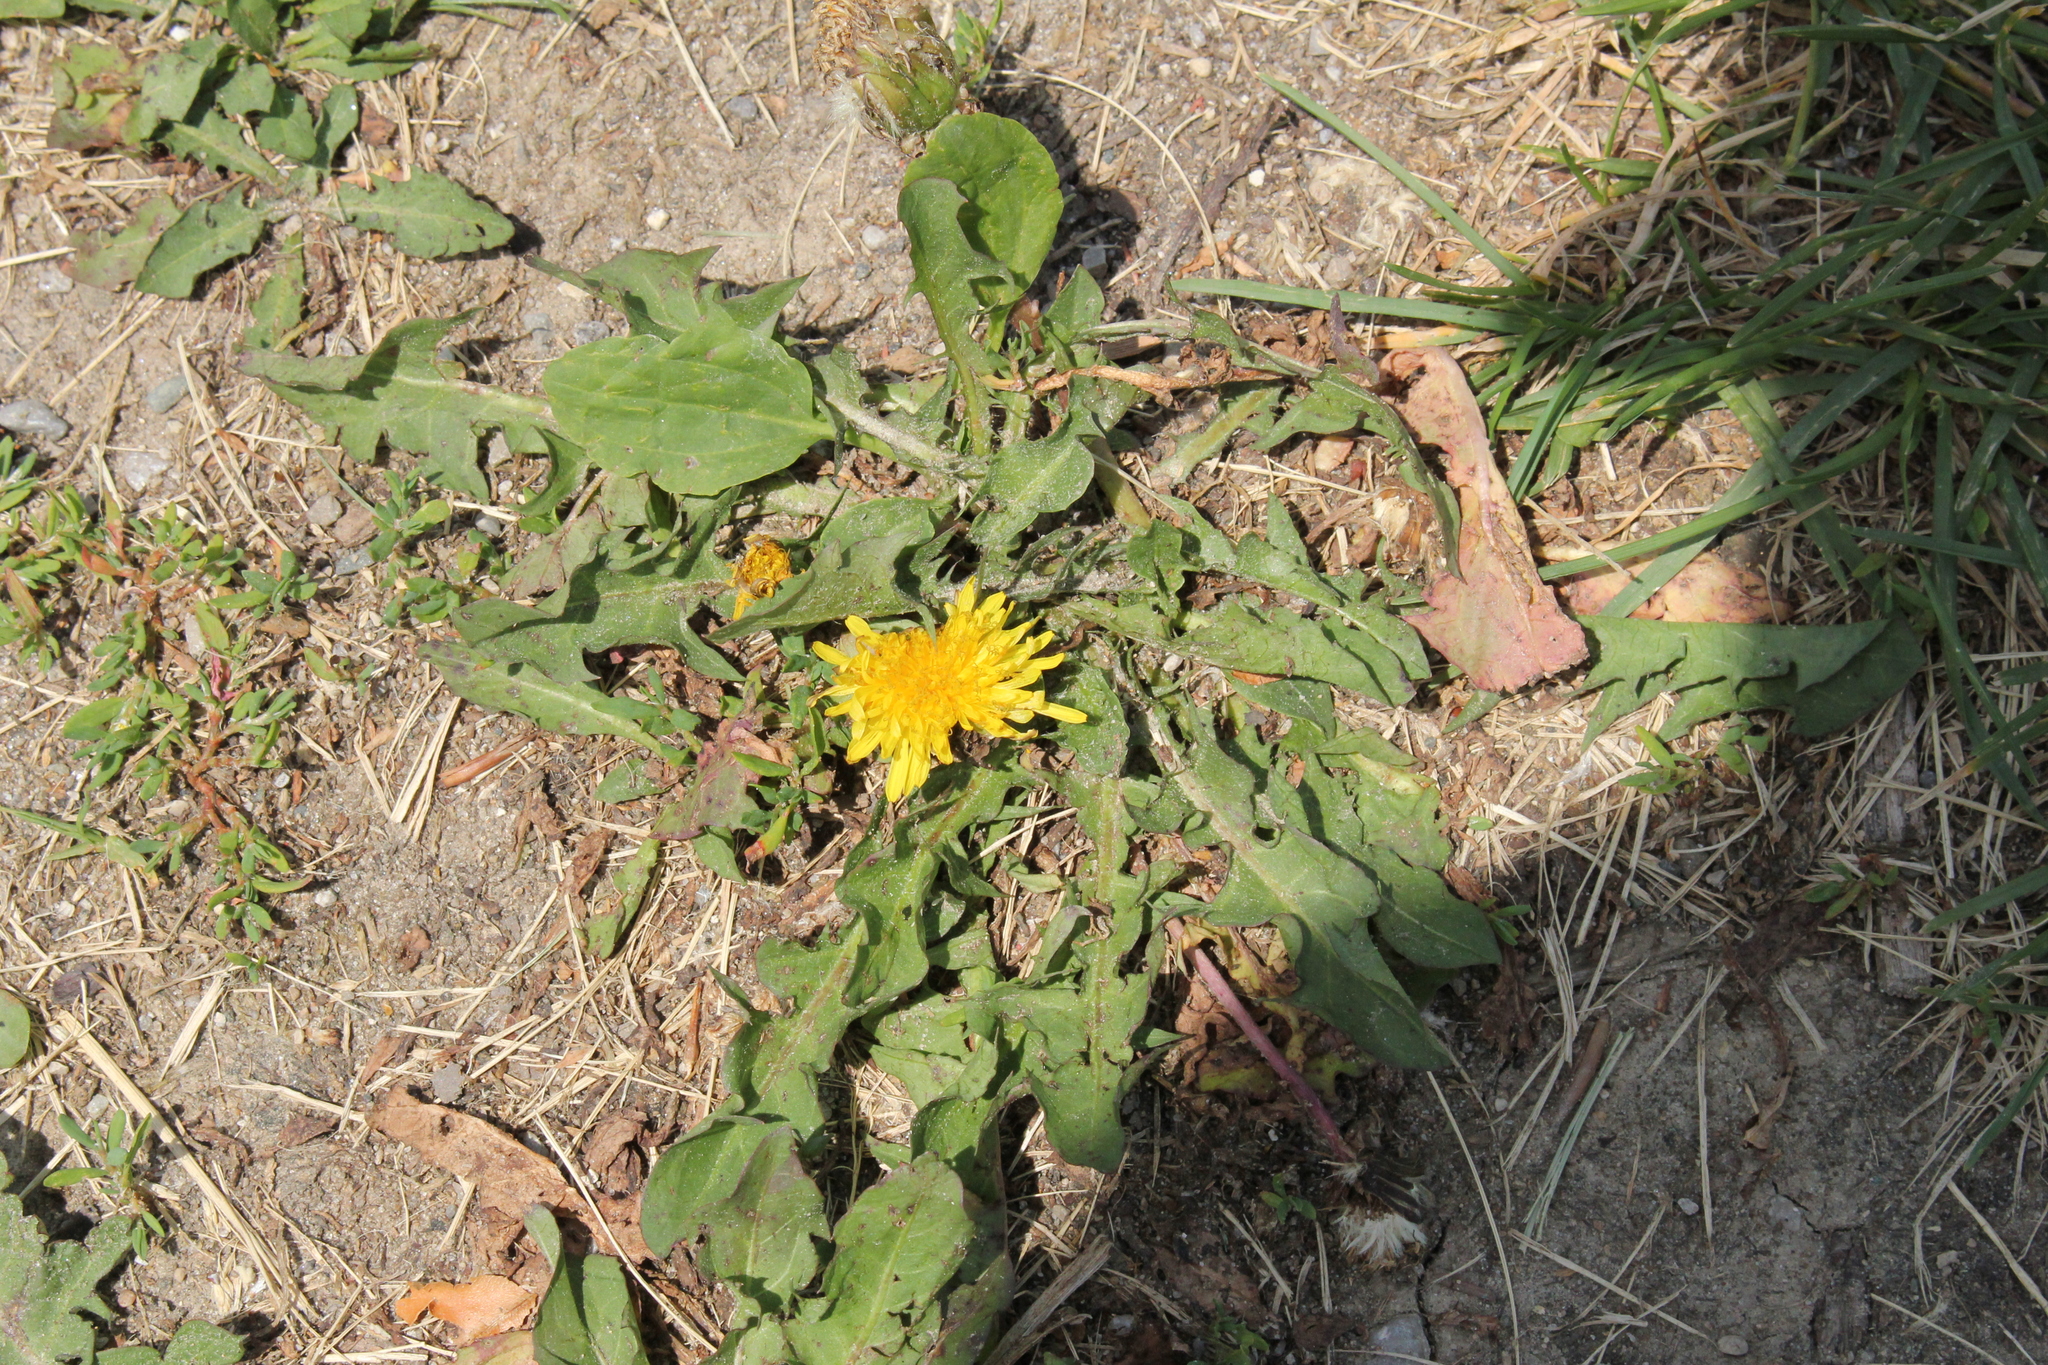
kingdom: Plantae
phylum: Tracheophyta
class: Magnoliopsida
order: Asterales
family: Asteraceae
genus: Taraxacum
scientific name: Taraxacum officinale
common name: Common dandelion
